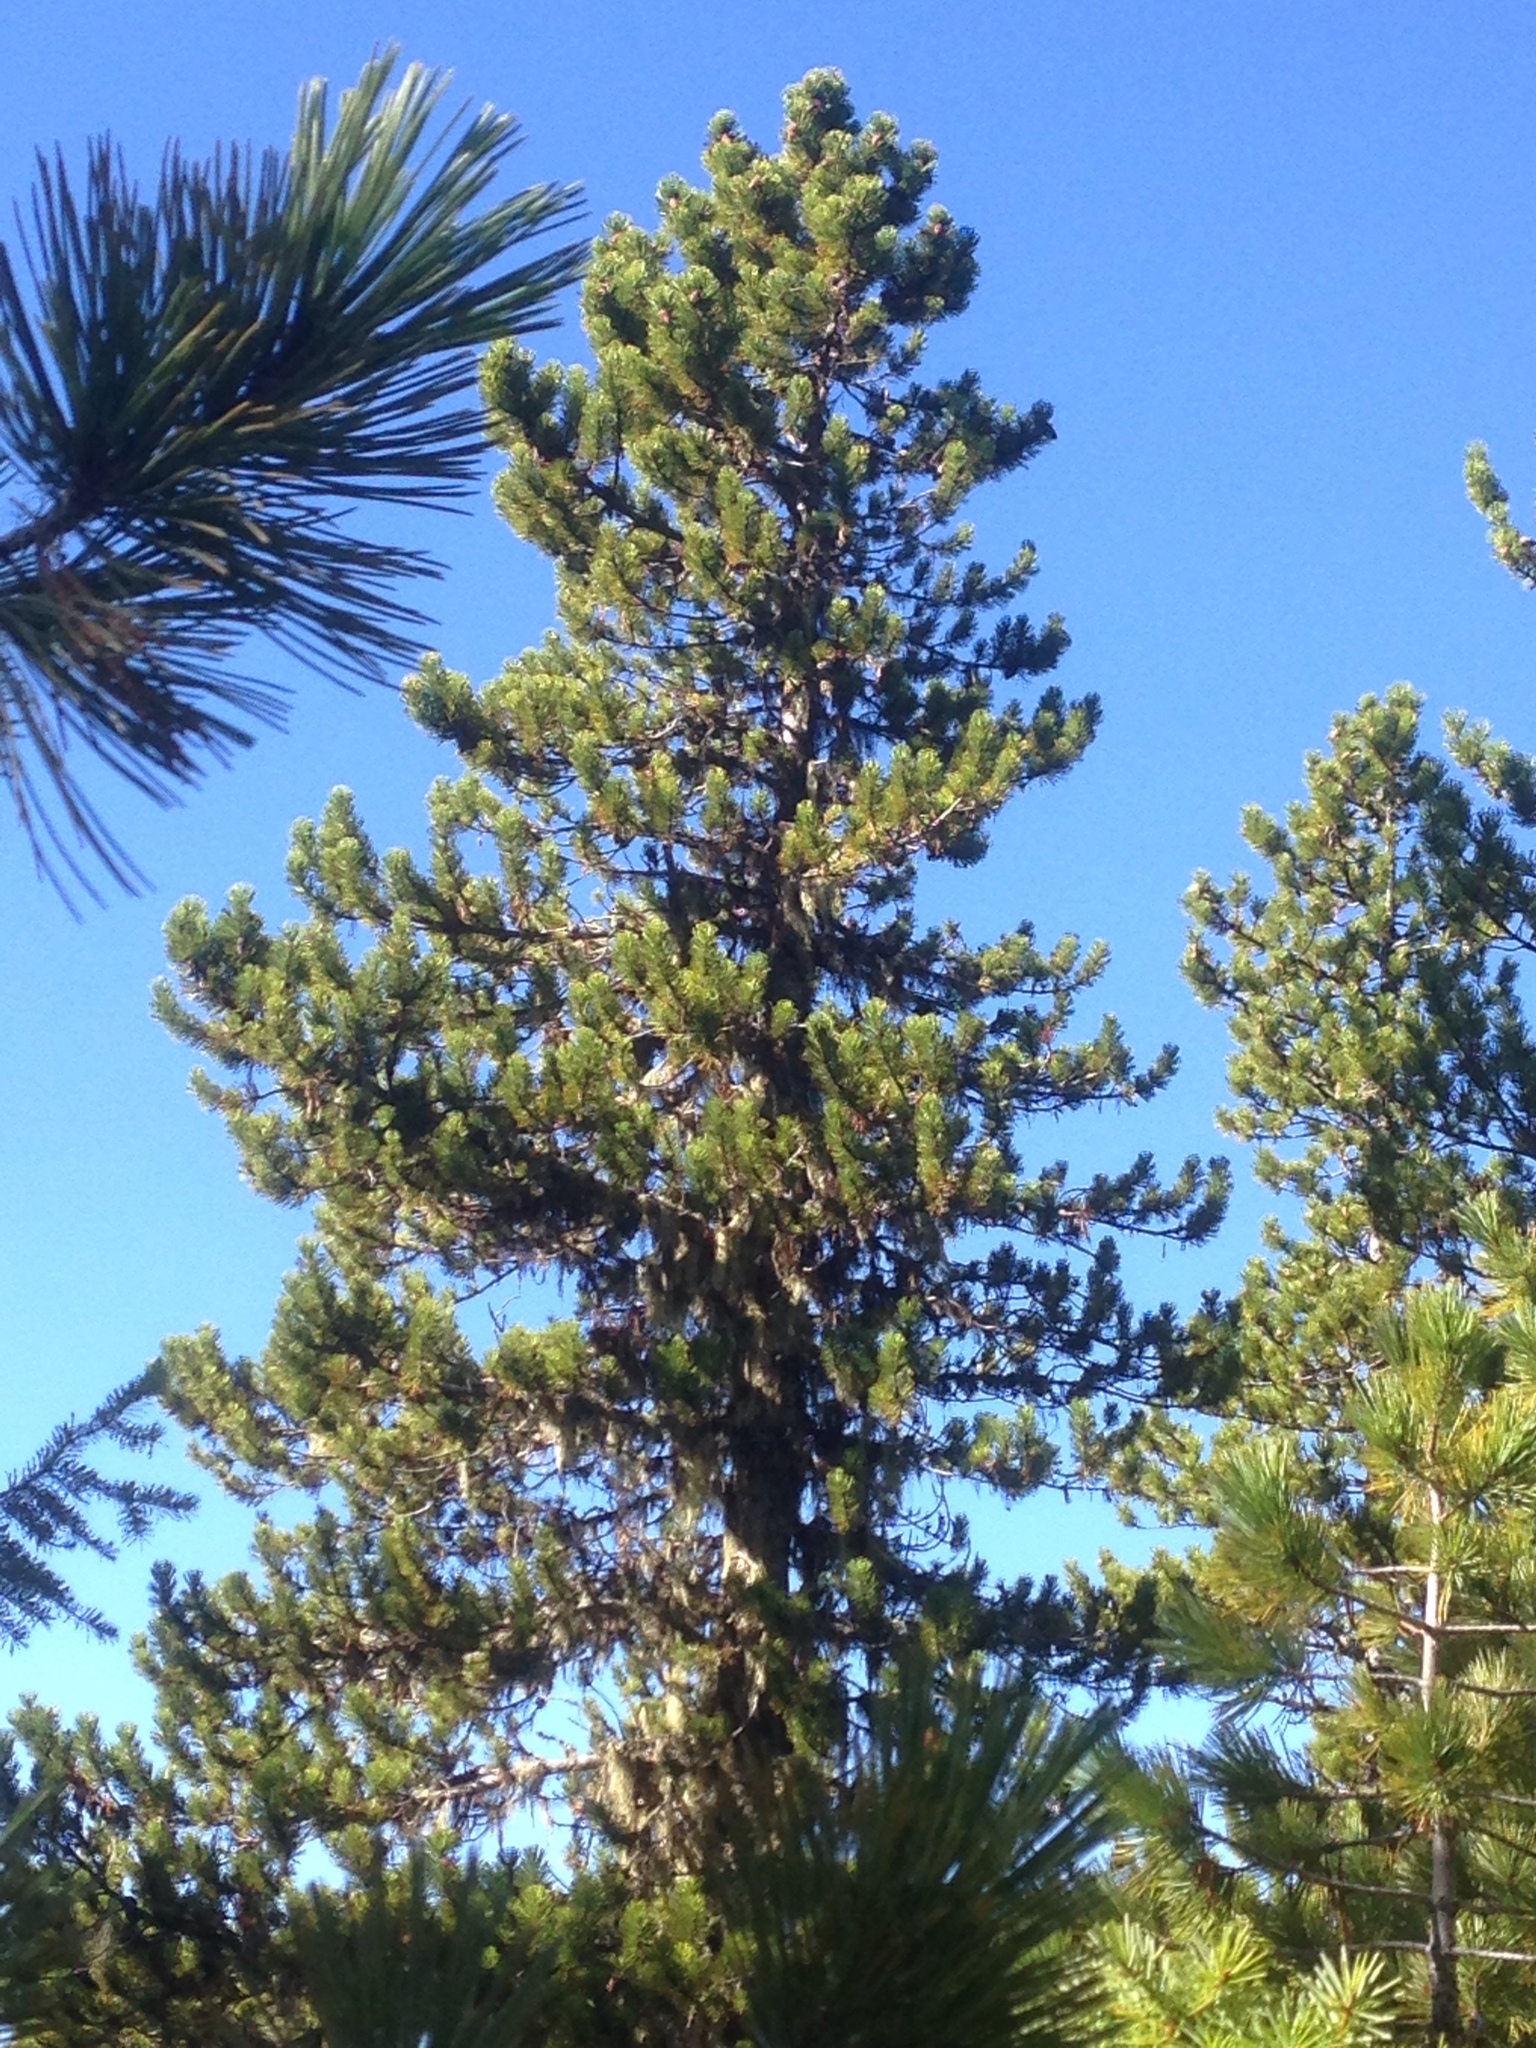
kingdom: Plantae
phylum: Tracheophyta
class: Pinopsida
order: Pinales
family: Pinaceae
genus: Pinus
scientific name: Pinus contorta
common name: Lodgepole pine
